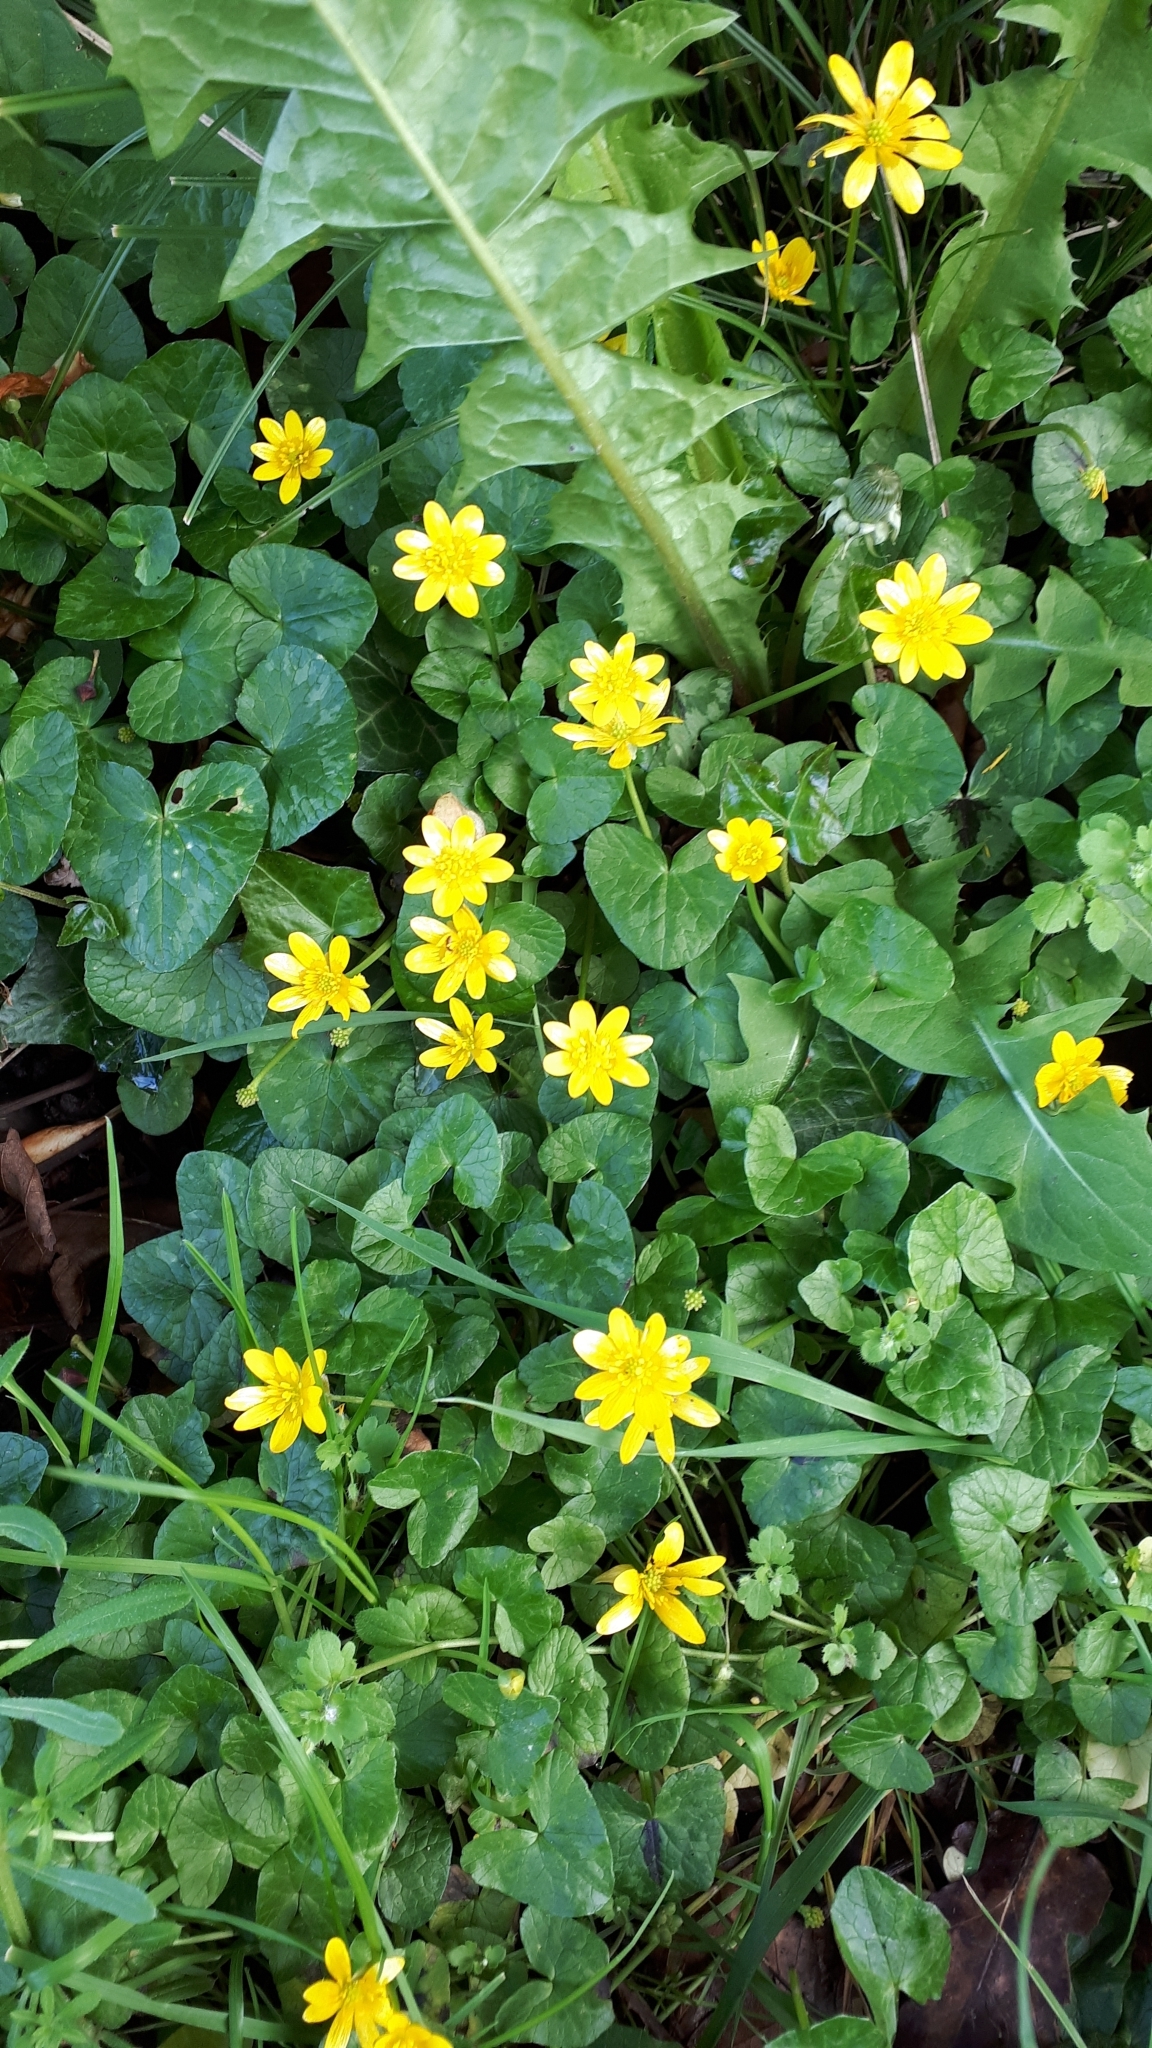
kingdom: Plantae
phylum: Tracheophyta
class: Magnoliopsida
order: Ranunculales
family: Ranunculaceae
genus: Ficaria
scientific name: Ficaria verna
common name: Lesser celandine
